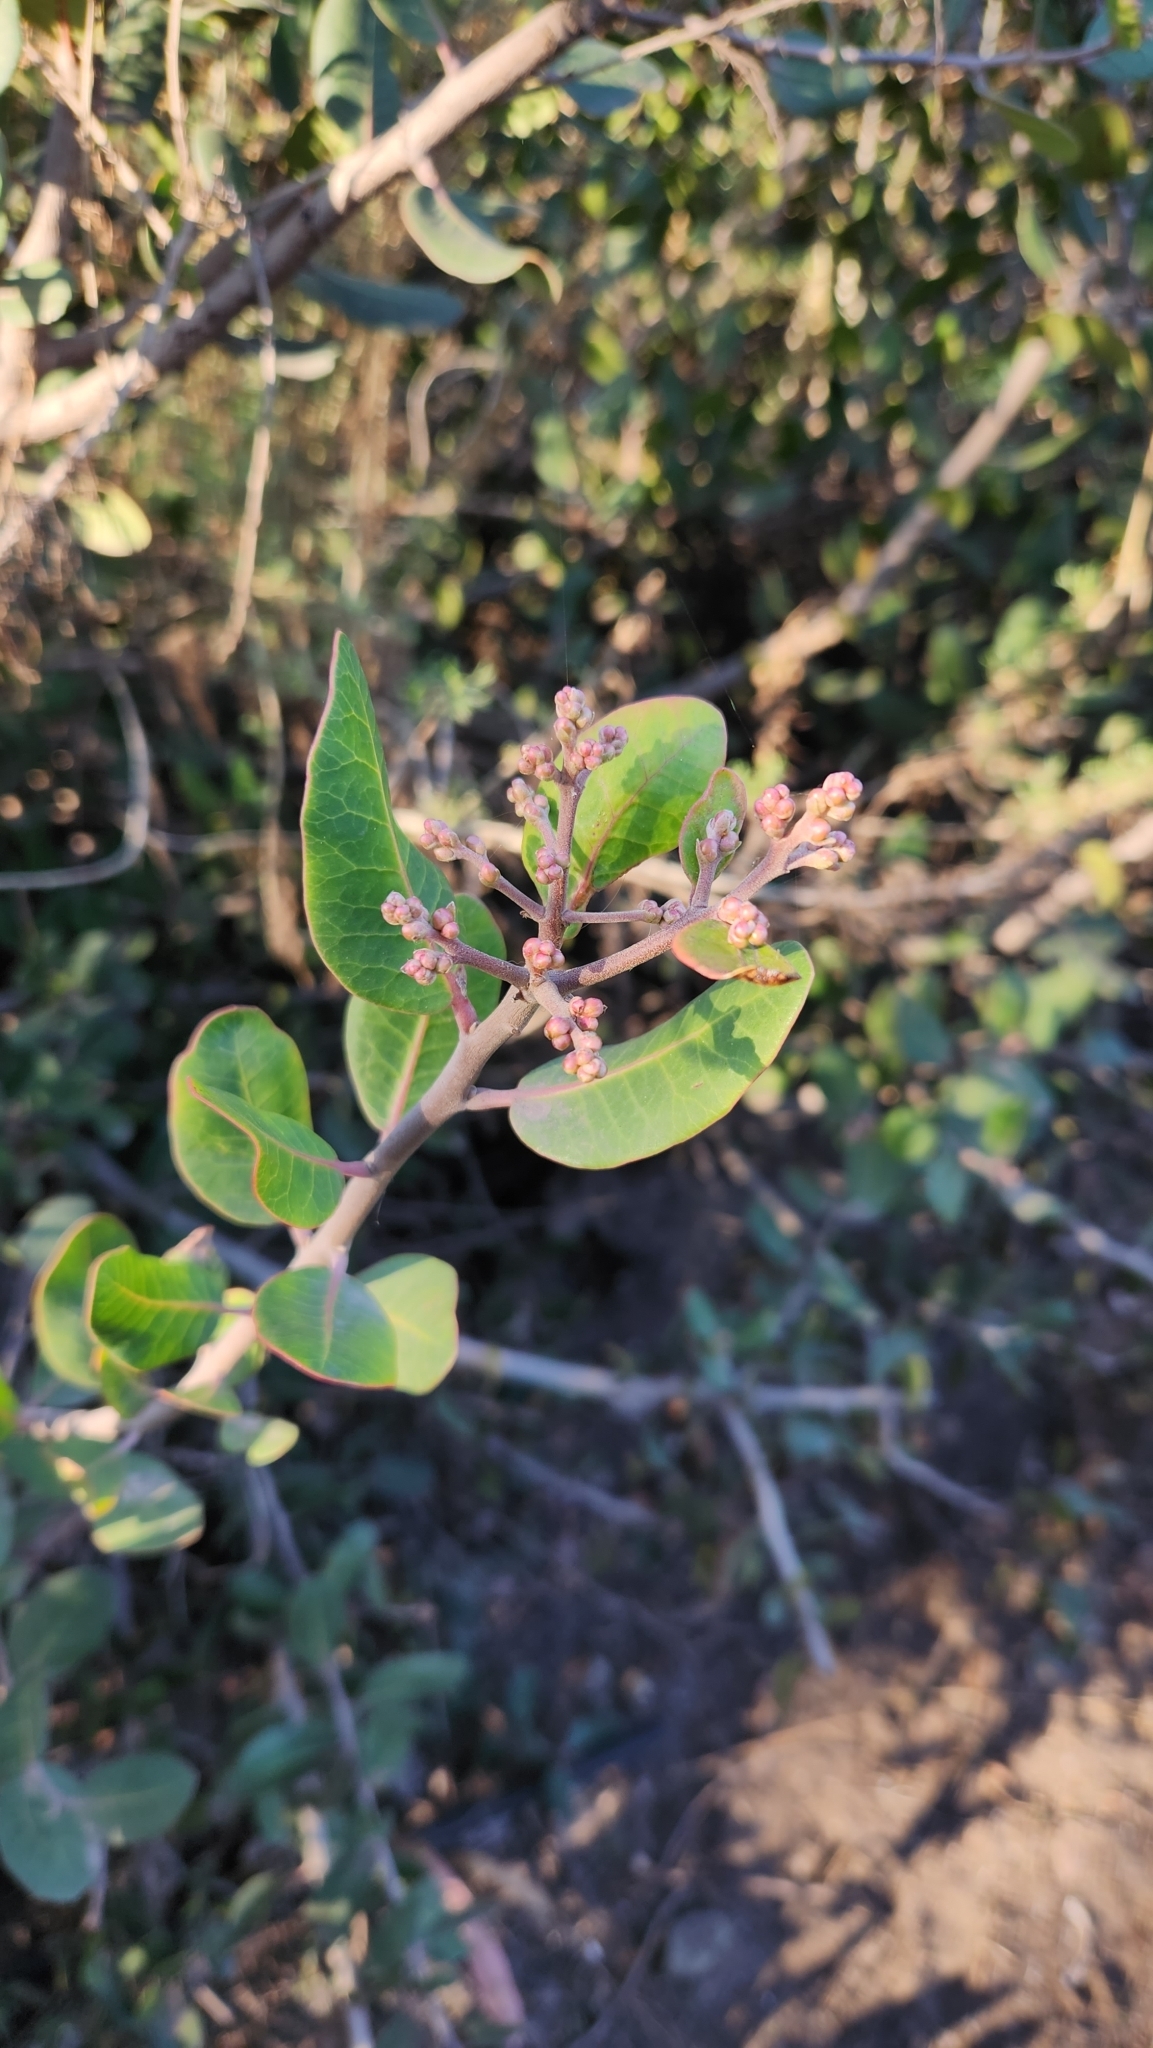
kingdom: Plantae
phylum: Tracheophyta
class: Magnoliopsida
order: Sapindales
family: Anacardiaceae
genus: Rhus
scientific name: Rhus integrifolia
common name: Lemonade sumac
